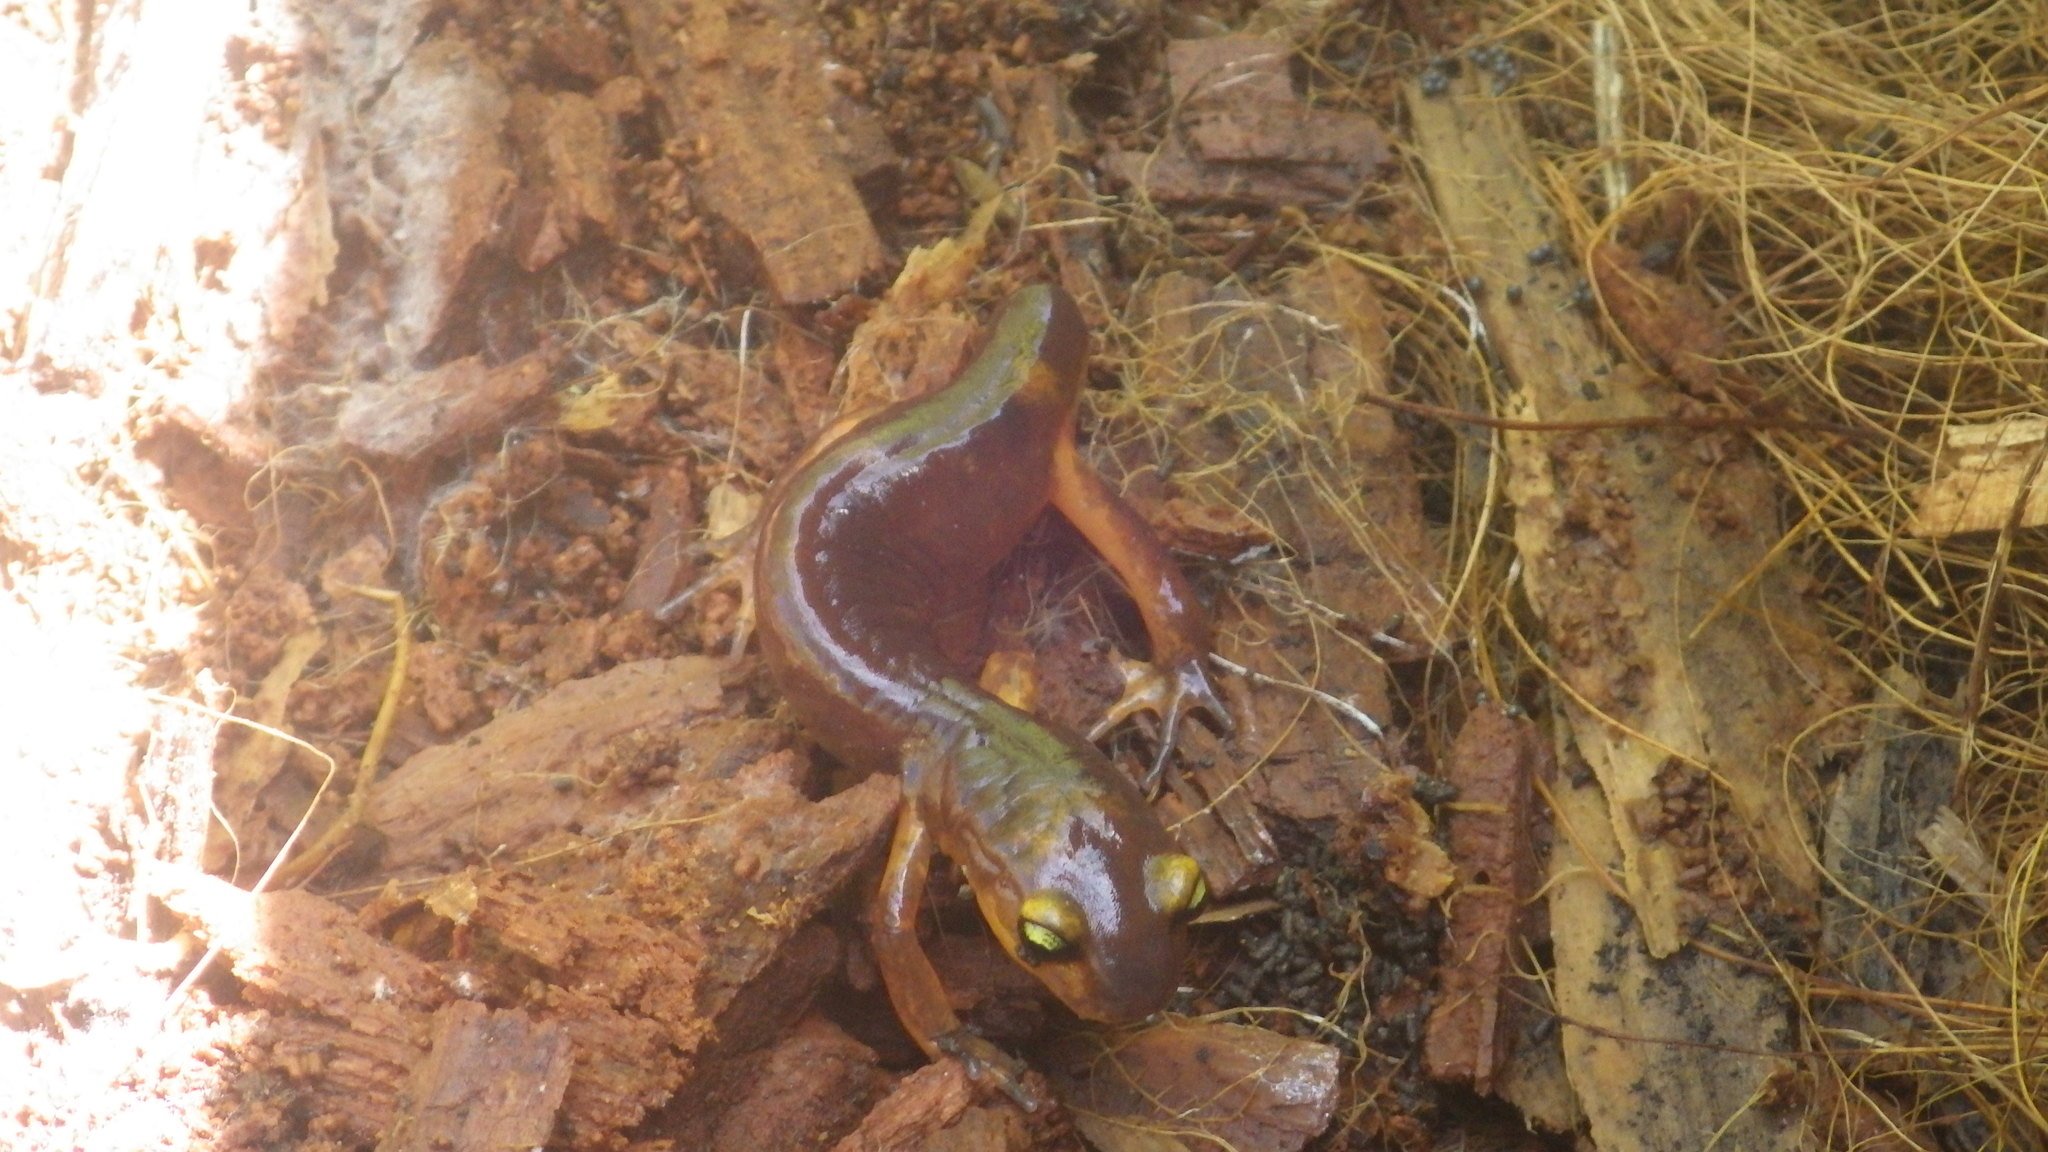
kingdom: Animalia
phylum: Chordata
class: Amphibia
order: Caudata
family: Plethodontidae
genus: Ensatina
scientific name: Ensatina eschscholtzii
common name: Ensatina
